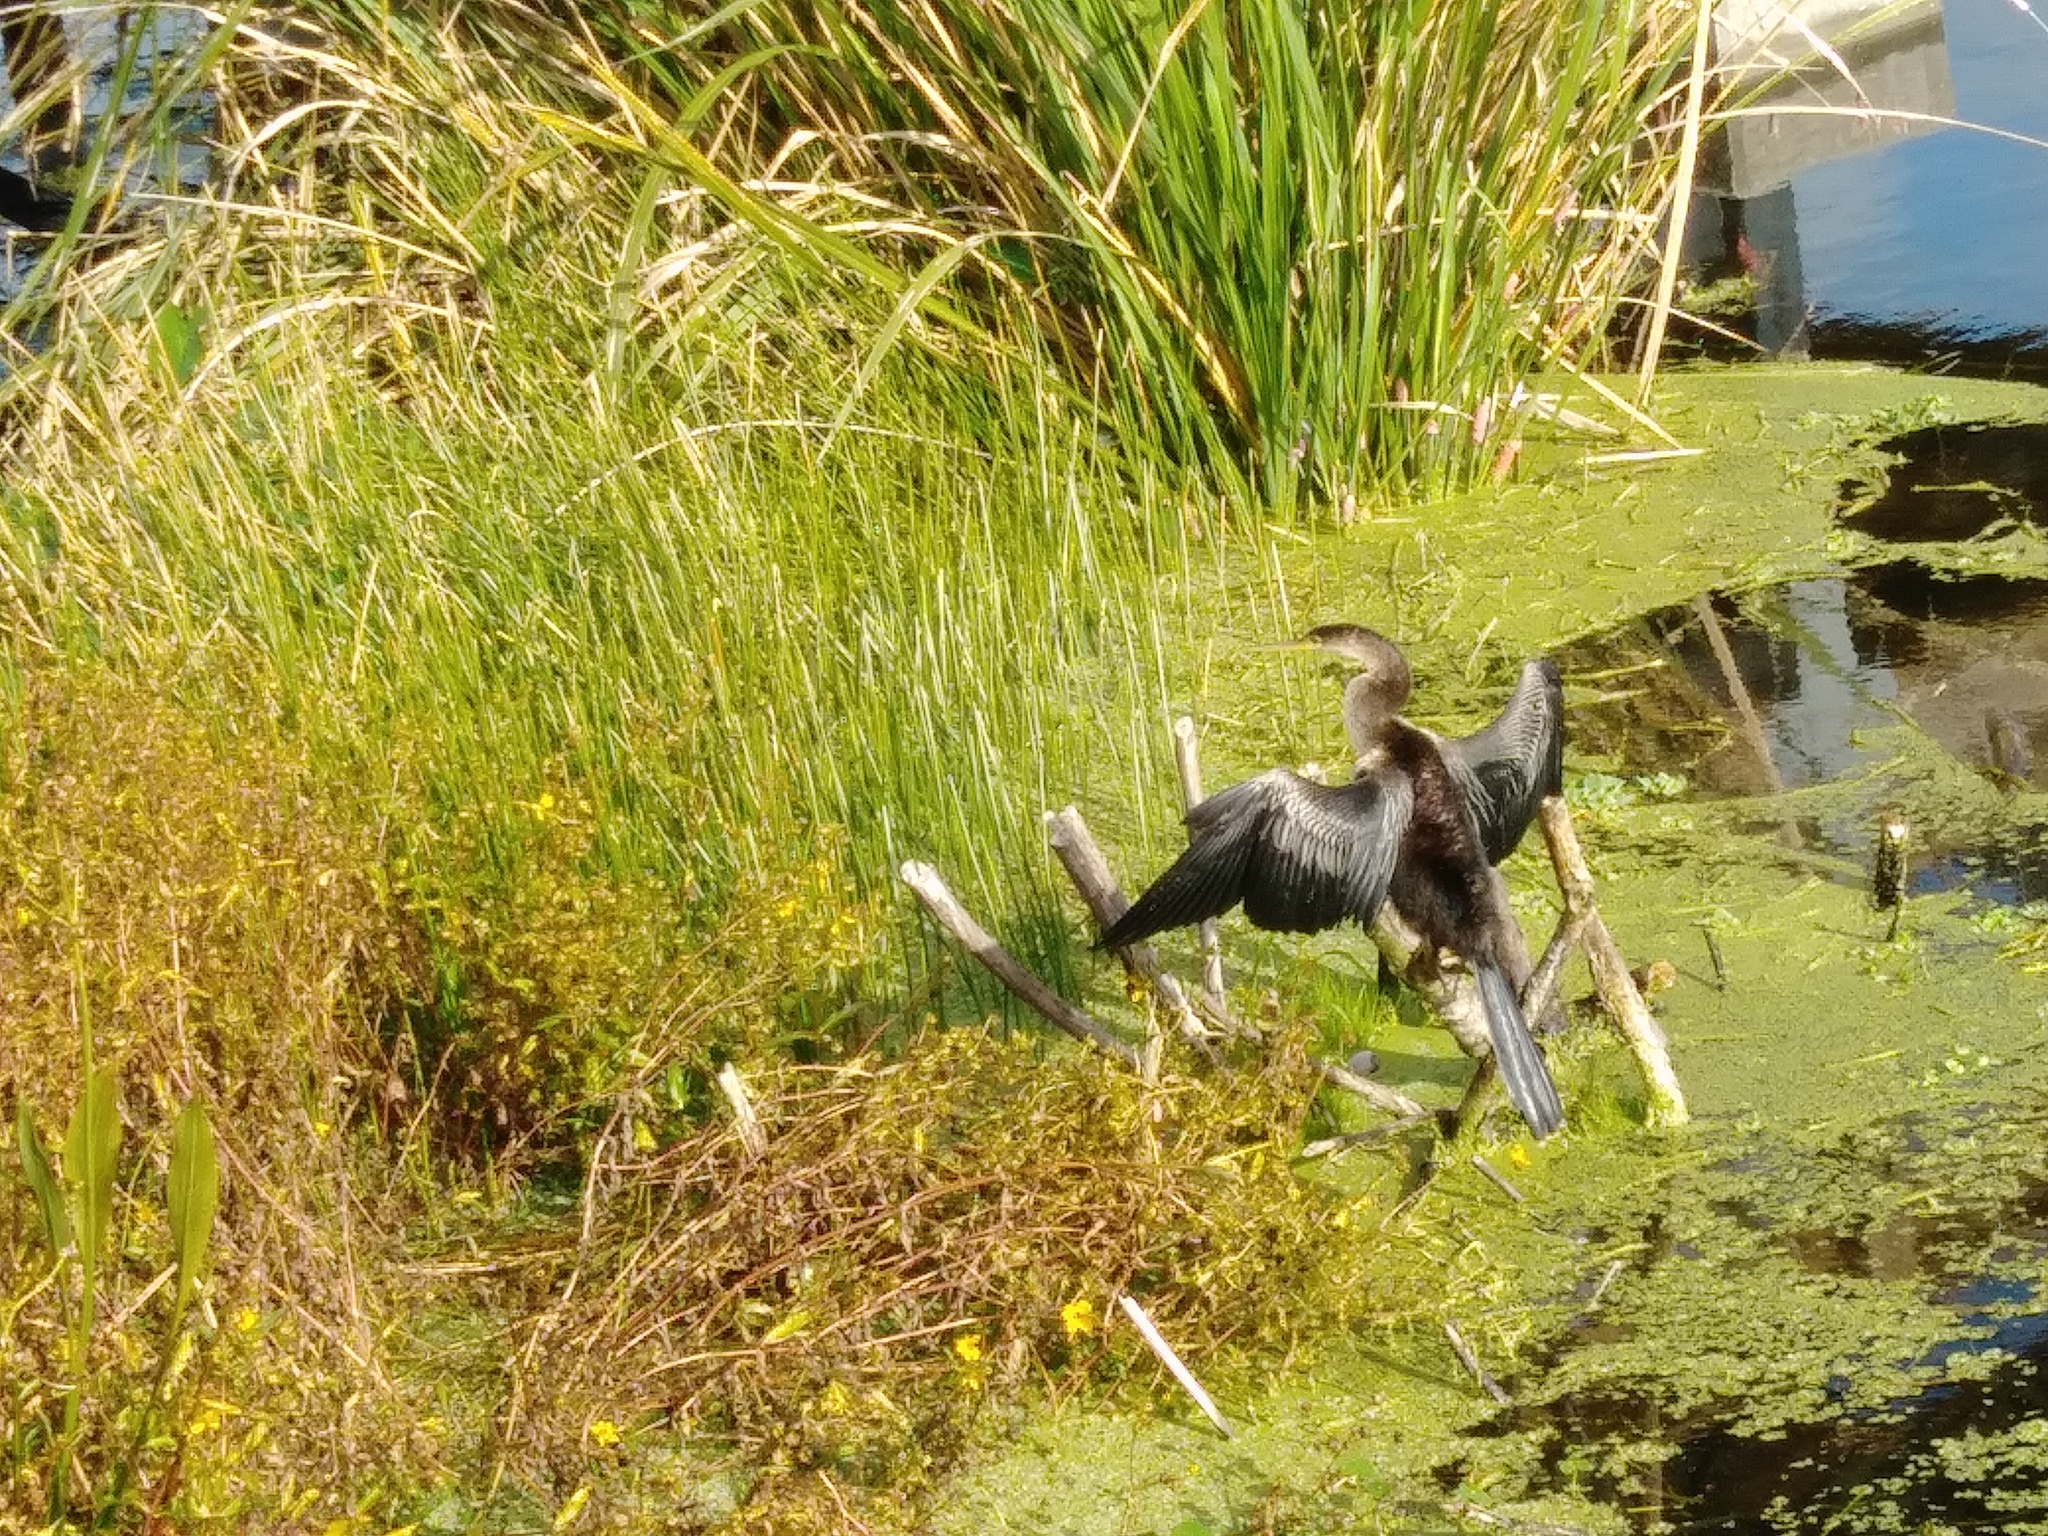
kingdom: Animalia
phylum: Chordata
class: Aves
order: Suliformes
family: Anhingidae
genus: Anhinga
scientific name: Anhinga anhinga
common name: Anhinga
